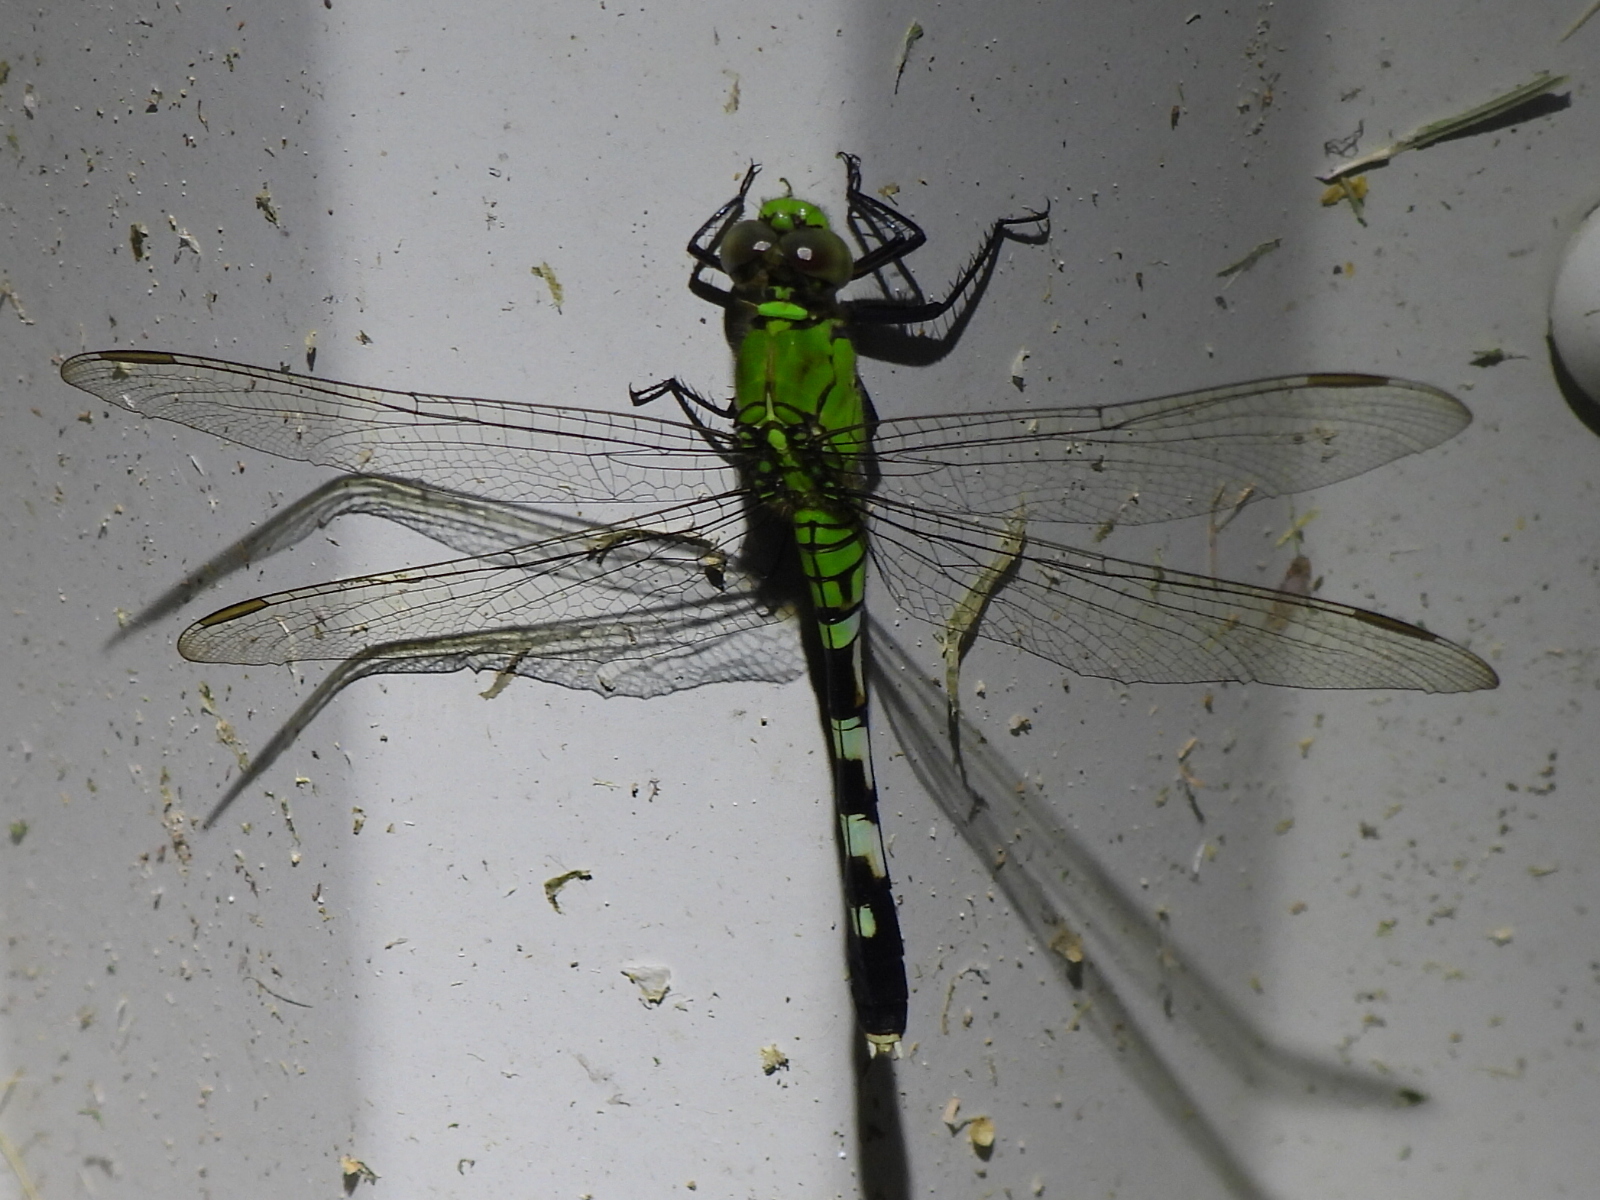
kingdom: Animalia
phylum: Arthropoda
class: Insecta
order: Odonata
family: Libellulidae
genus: Erythemis
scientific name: Erythemis simplicicollis
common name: Eastern pondhawk
